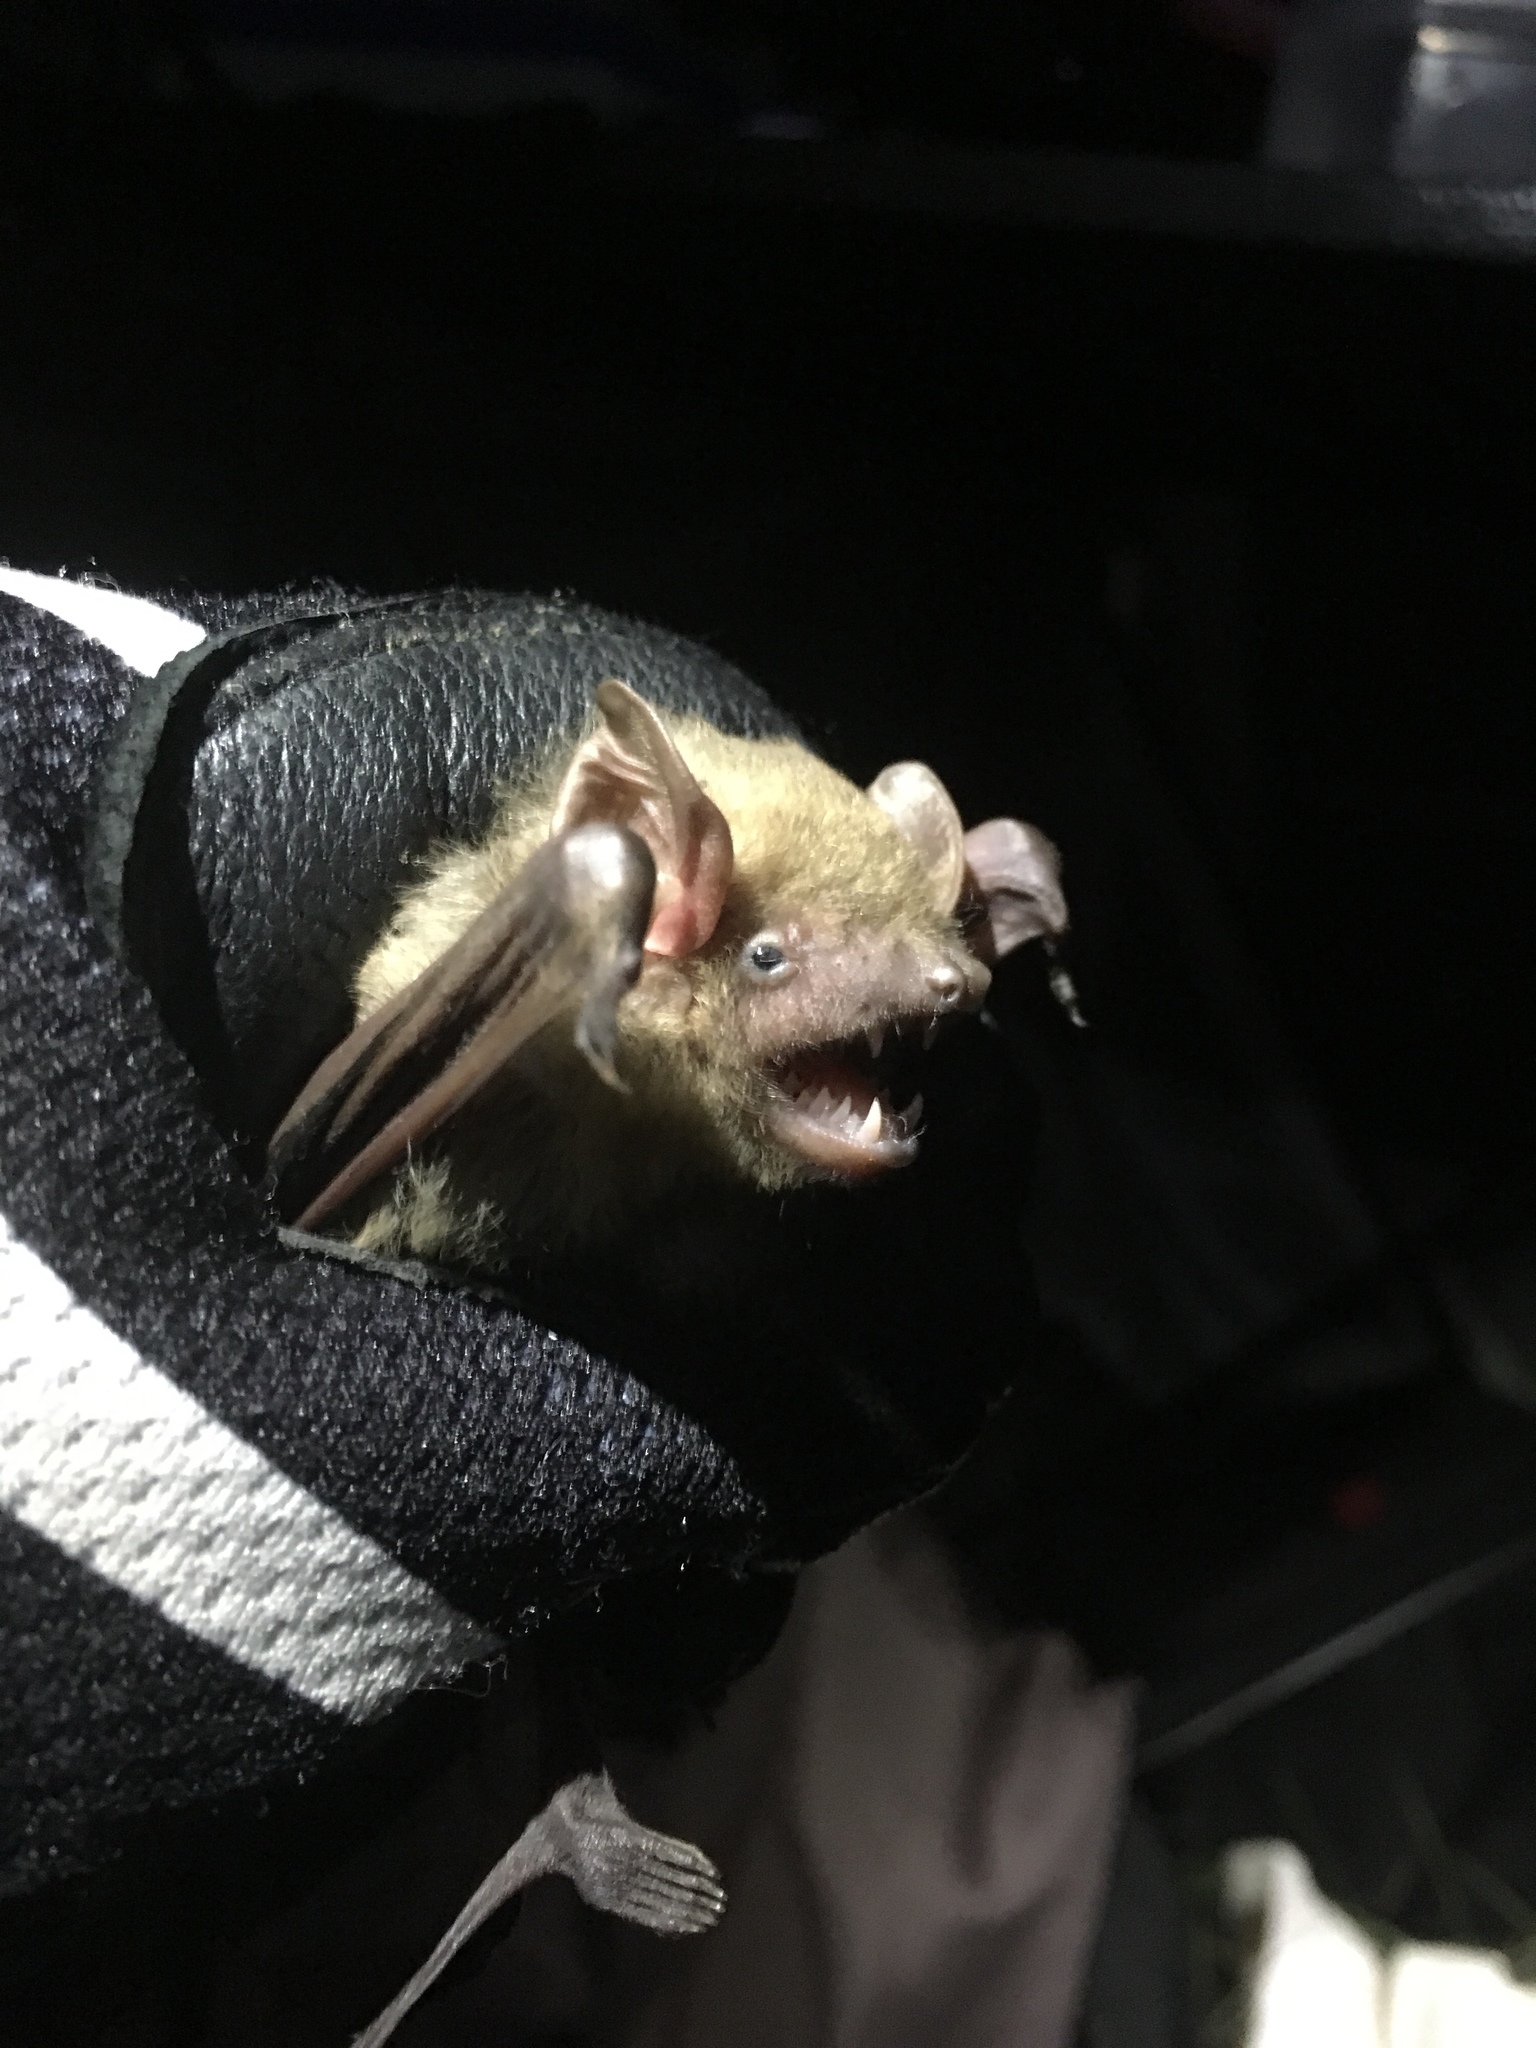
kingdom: Animalia
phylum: Chordata
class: Mammalia
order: Chiroptera
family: Vespertilionidae
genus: Dasypterus
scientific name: Dasypterus intermedius
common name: Northern yellow bat
